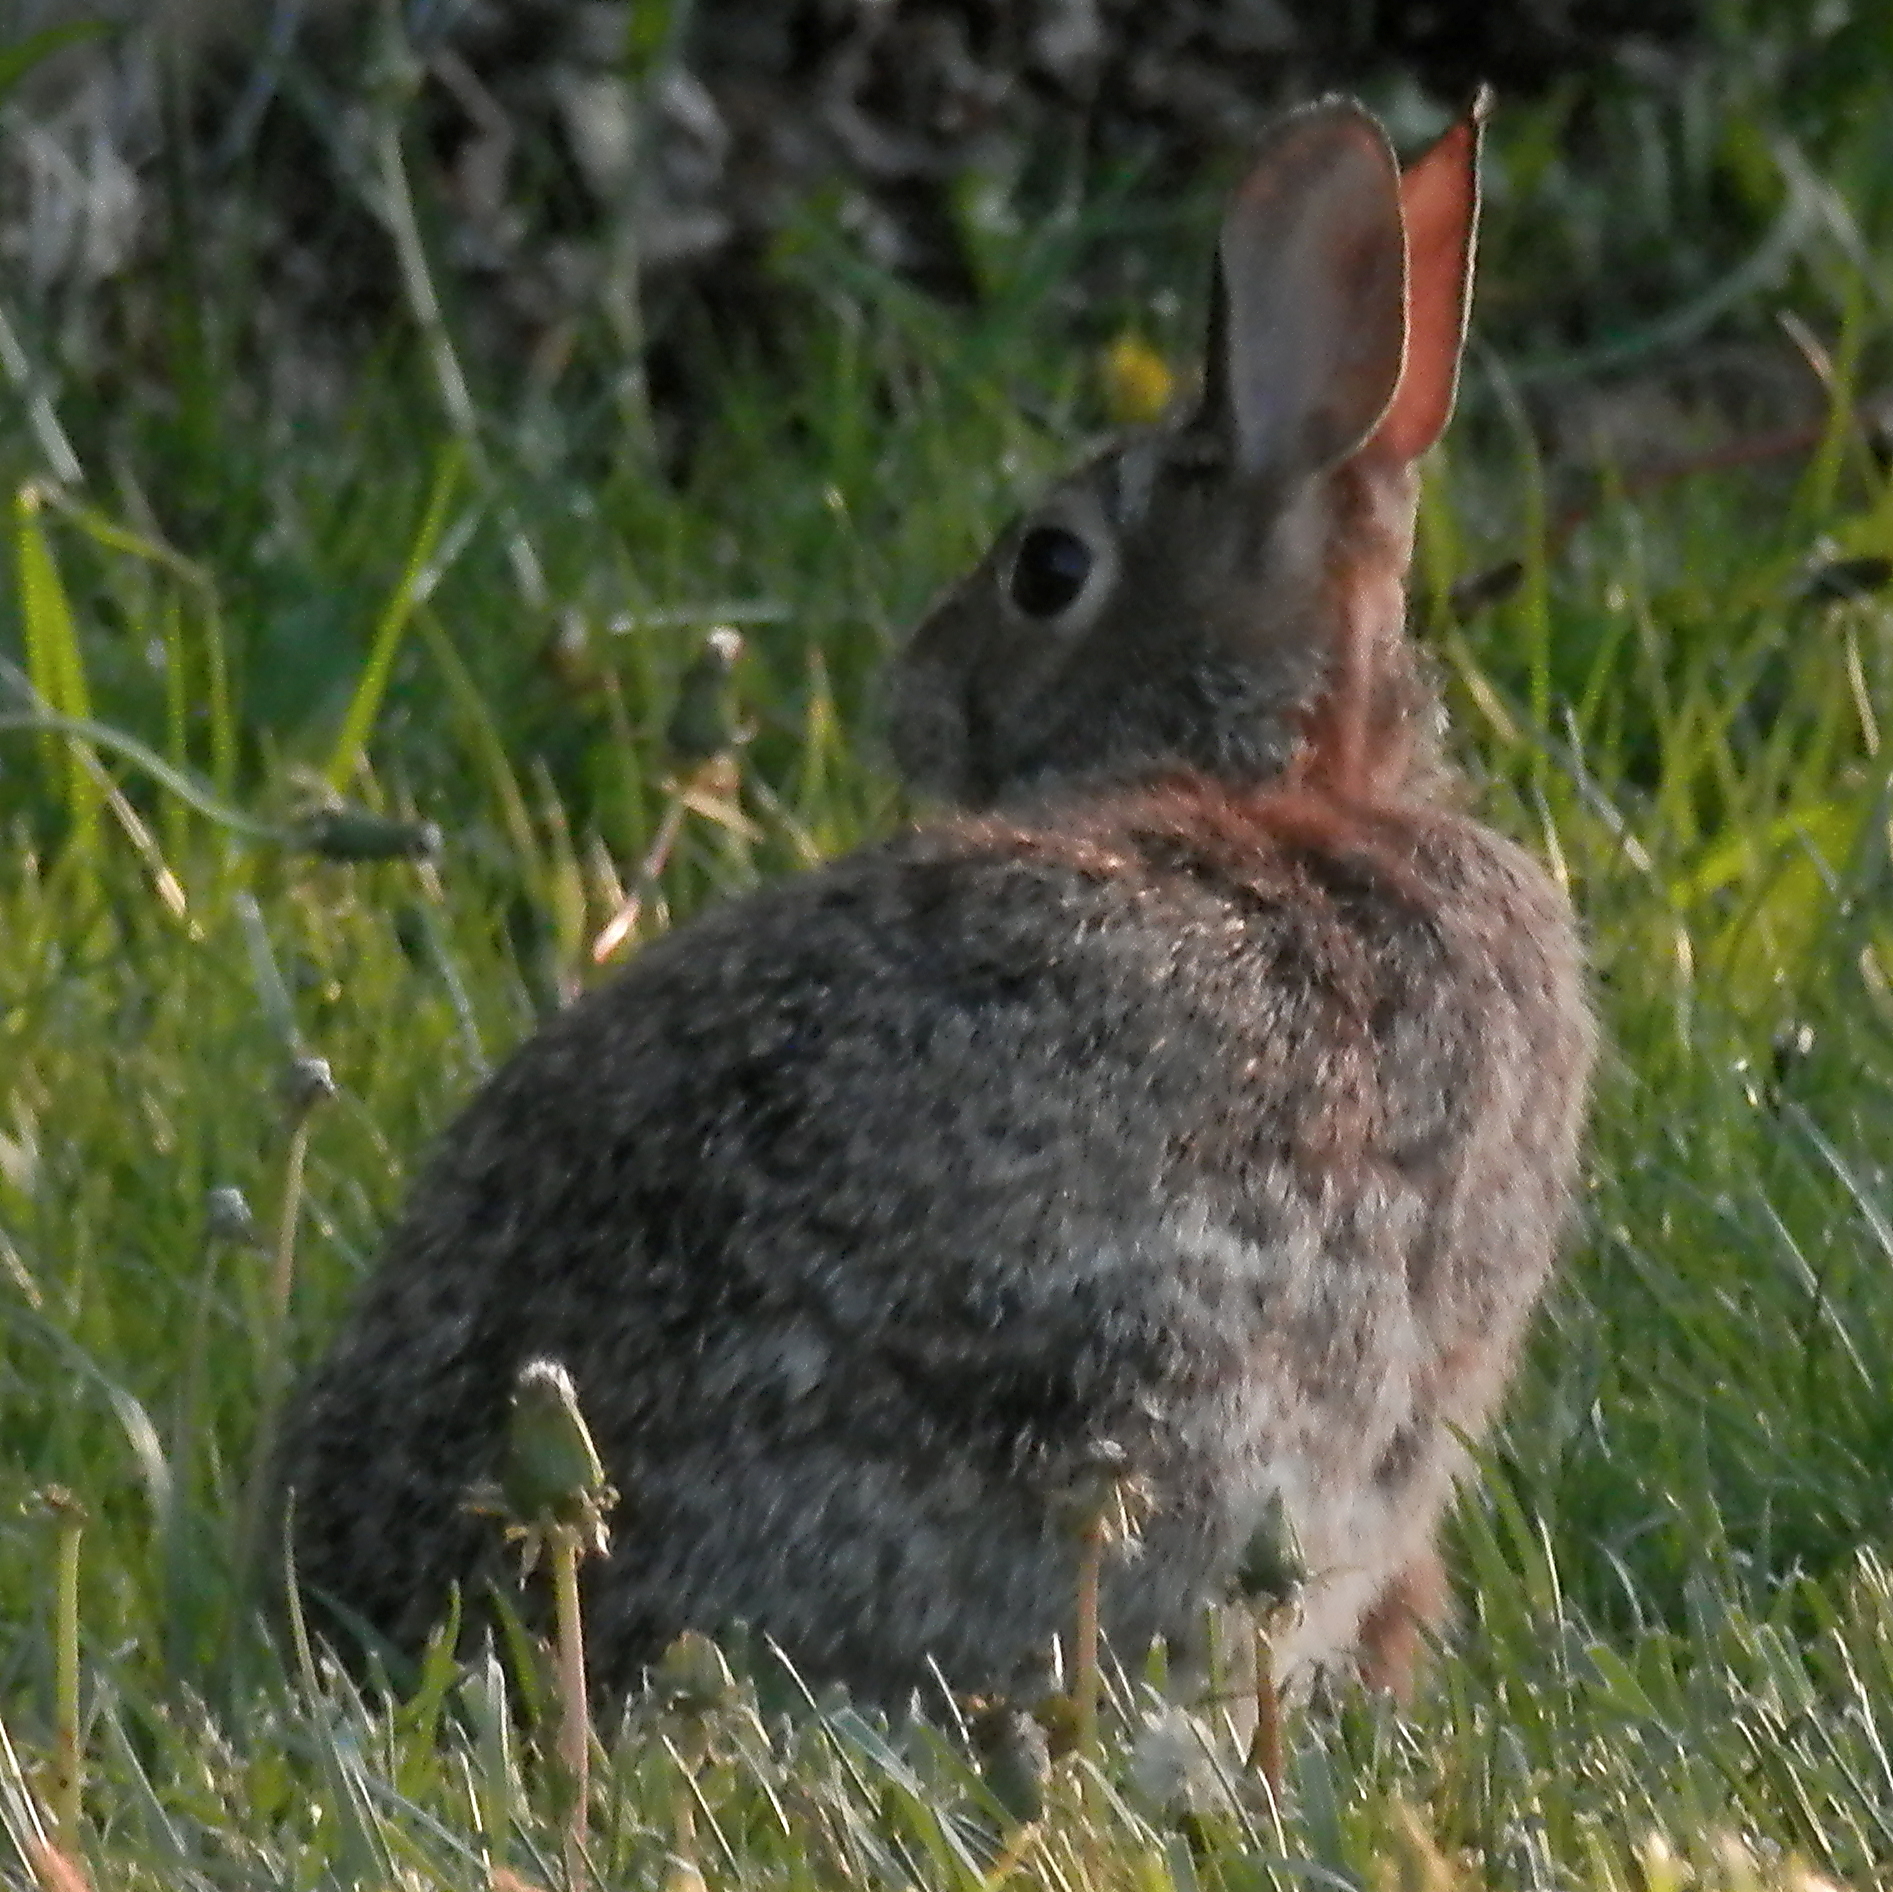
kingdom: Animalia
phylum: Chordata
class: Mammalia
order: Lagomorpha
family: Leporidae
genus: Sylvilagus
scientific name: Sylvilagus floridanus
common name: Eastern cottontail
